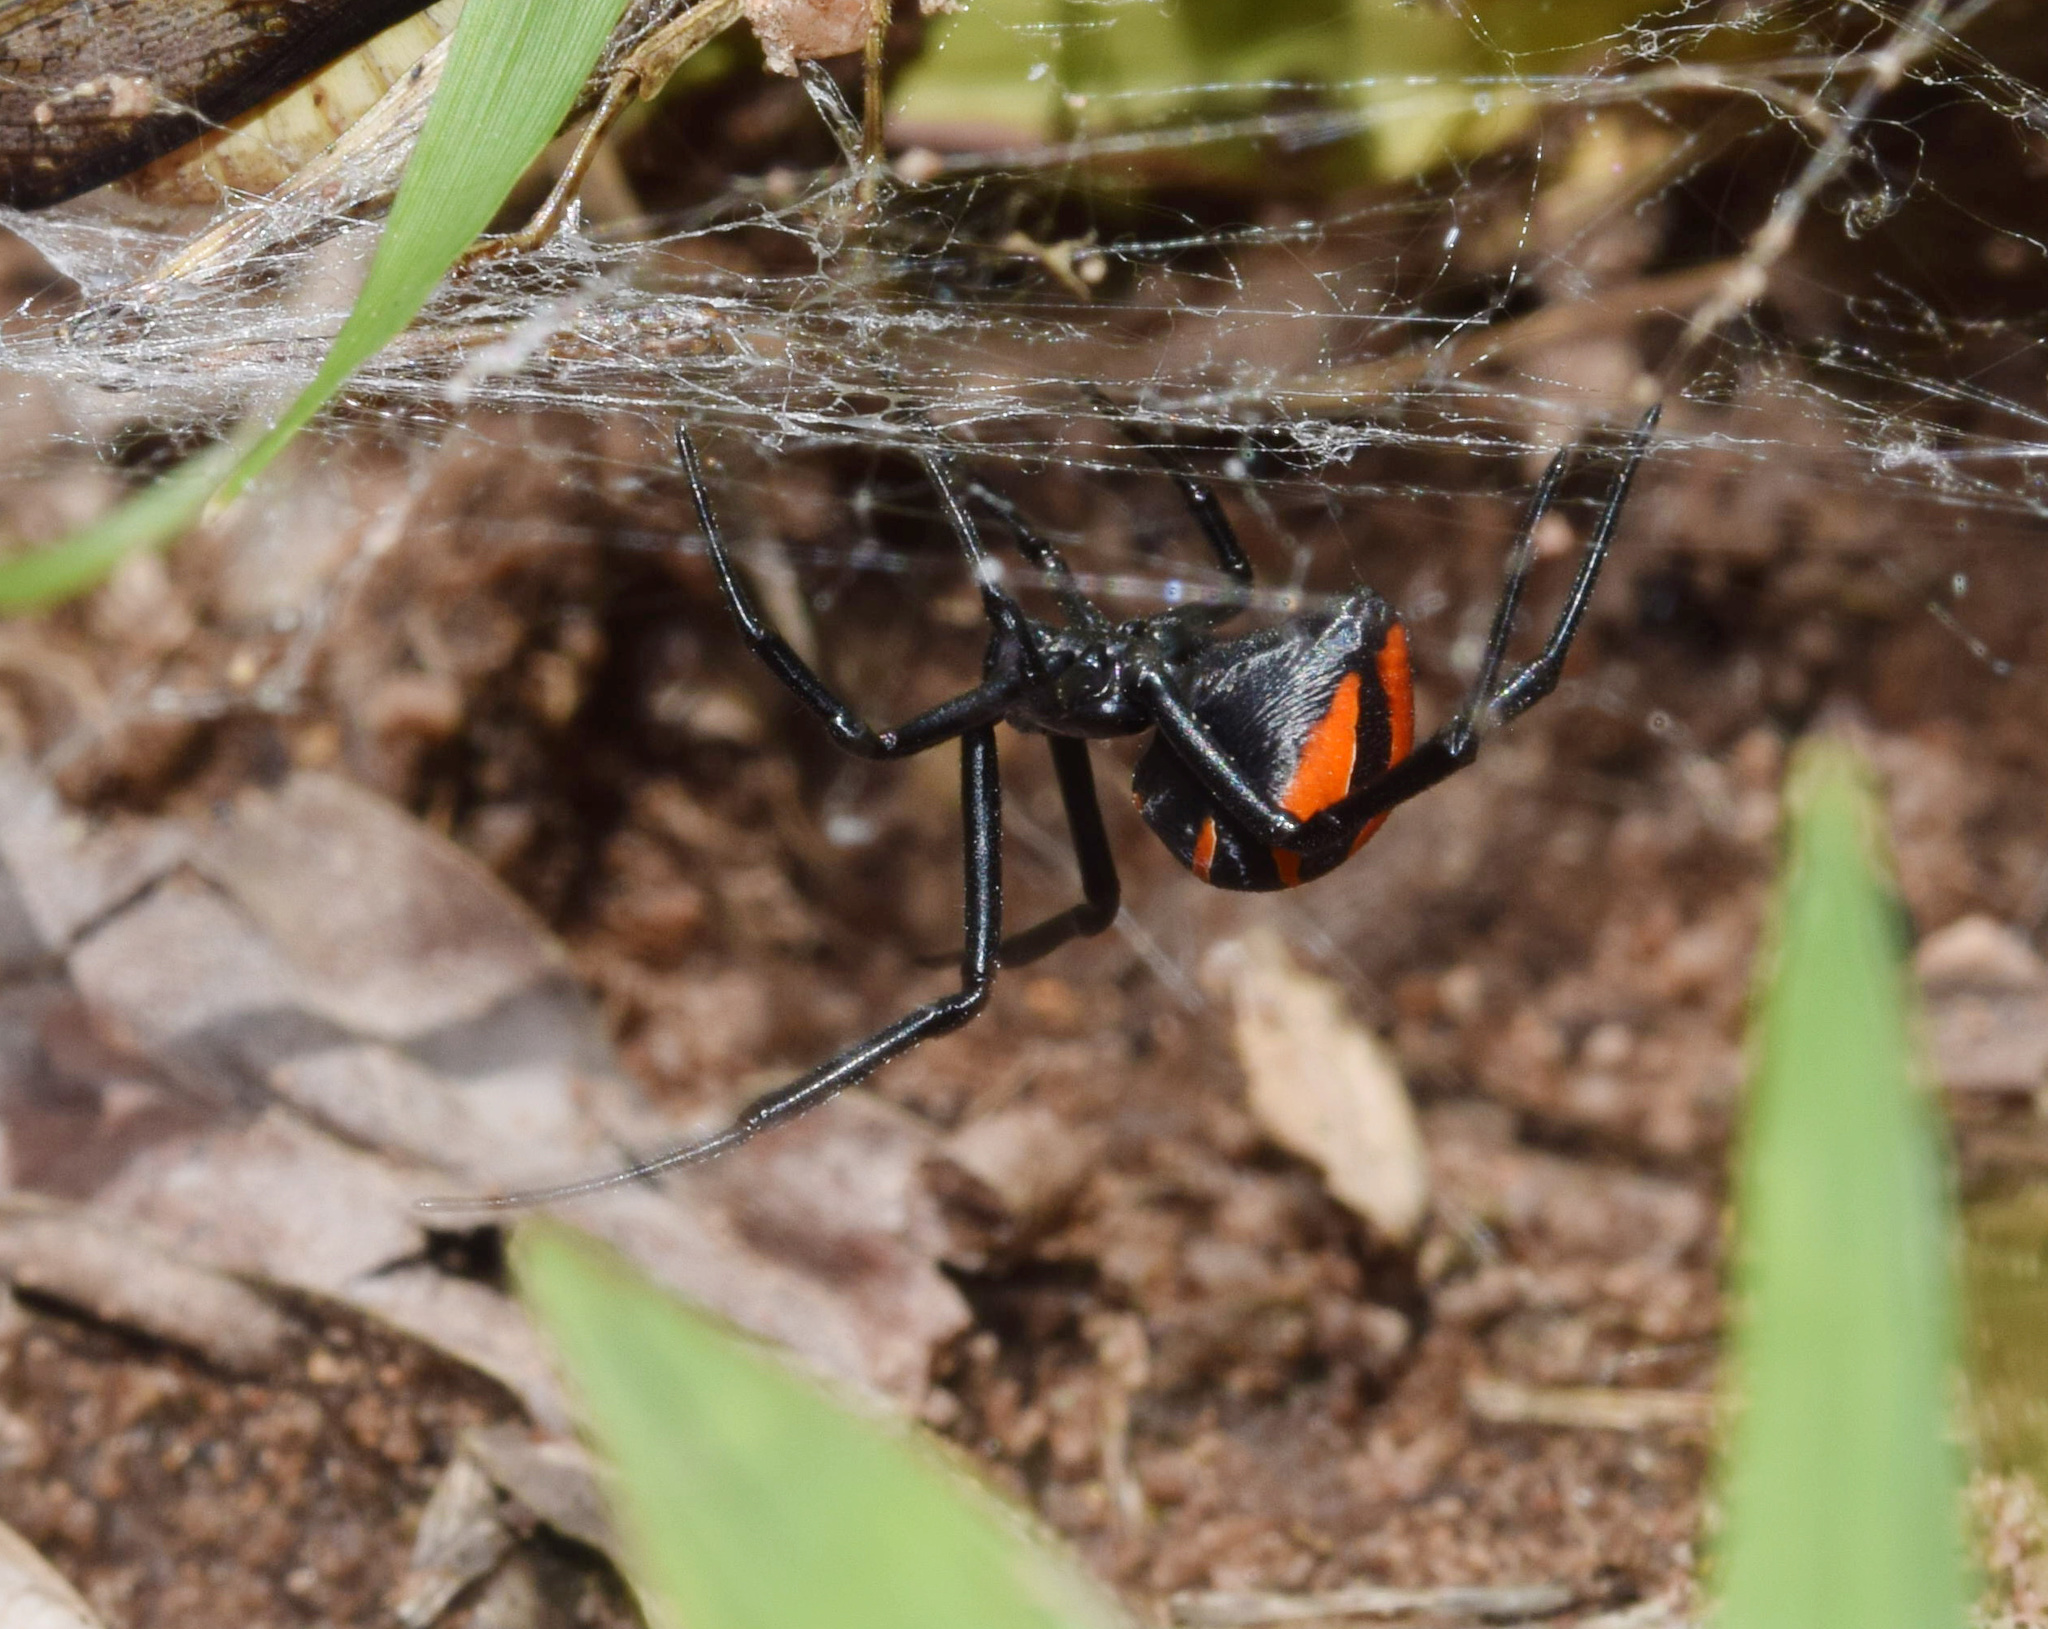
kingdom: Animalia
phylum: Arthropoda
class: Arachnida
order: Araneae
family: Theridiidae
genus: Latrodectus
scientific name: Latrodectus renivulvatus
